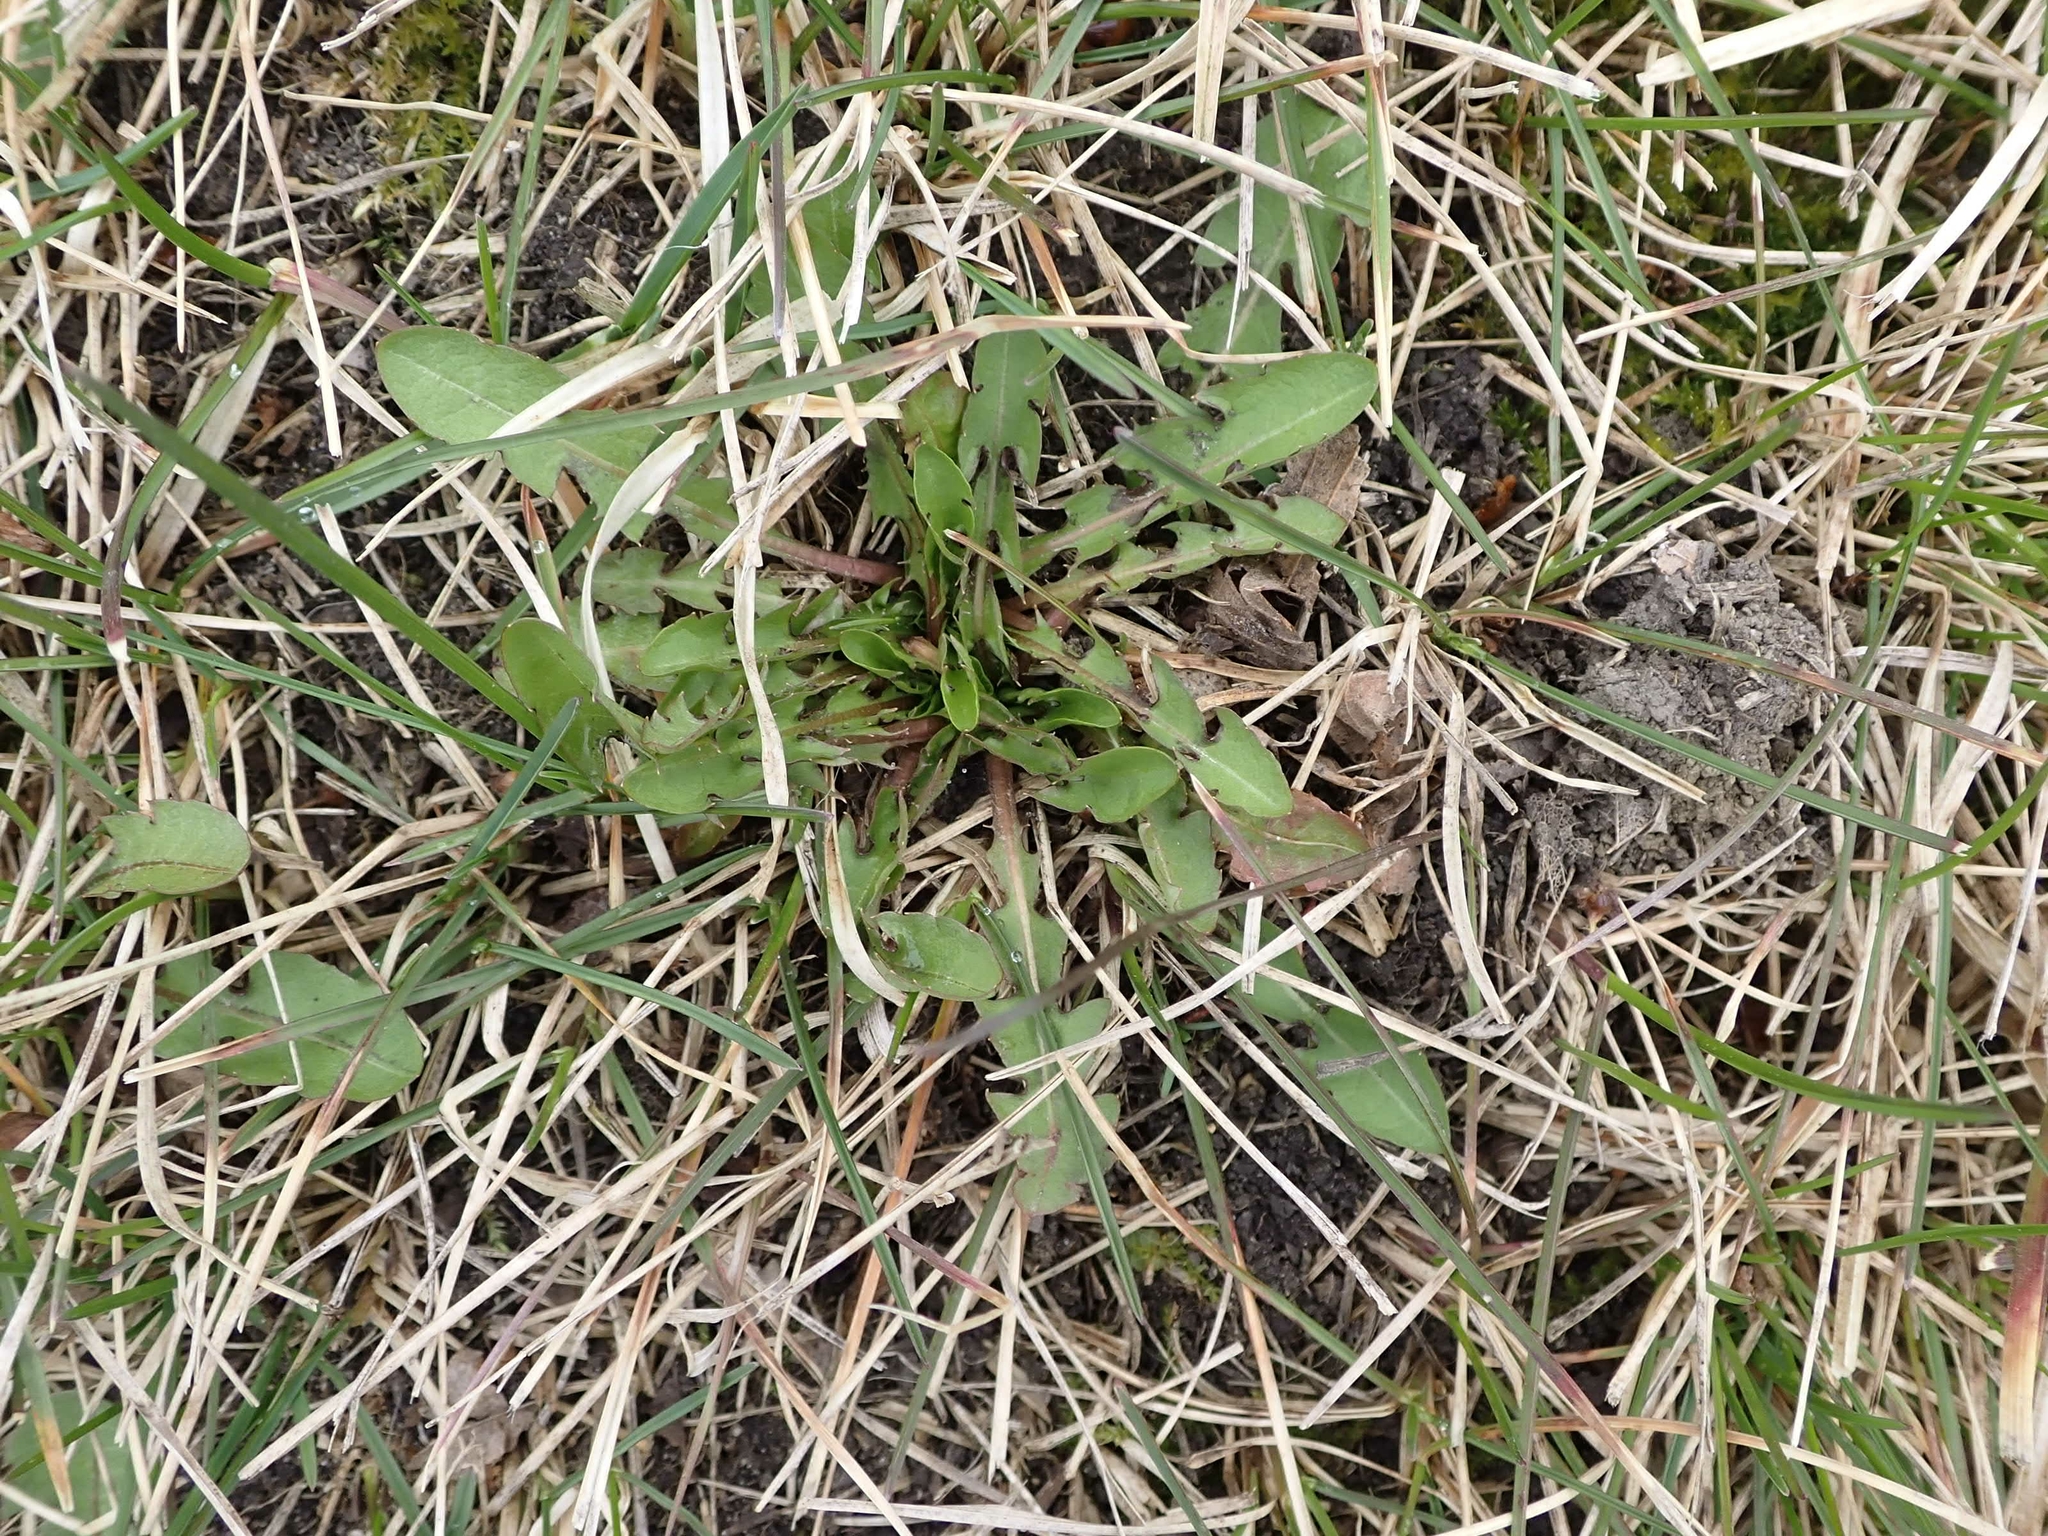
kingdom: Plantae
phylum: Tracheophyta
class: Magnoliopsida
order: Asterales
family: Asteraceae
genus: Taraxacum
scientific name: Taraxacum officinale
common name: Common dandelion
